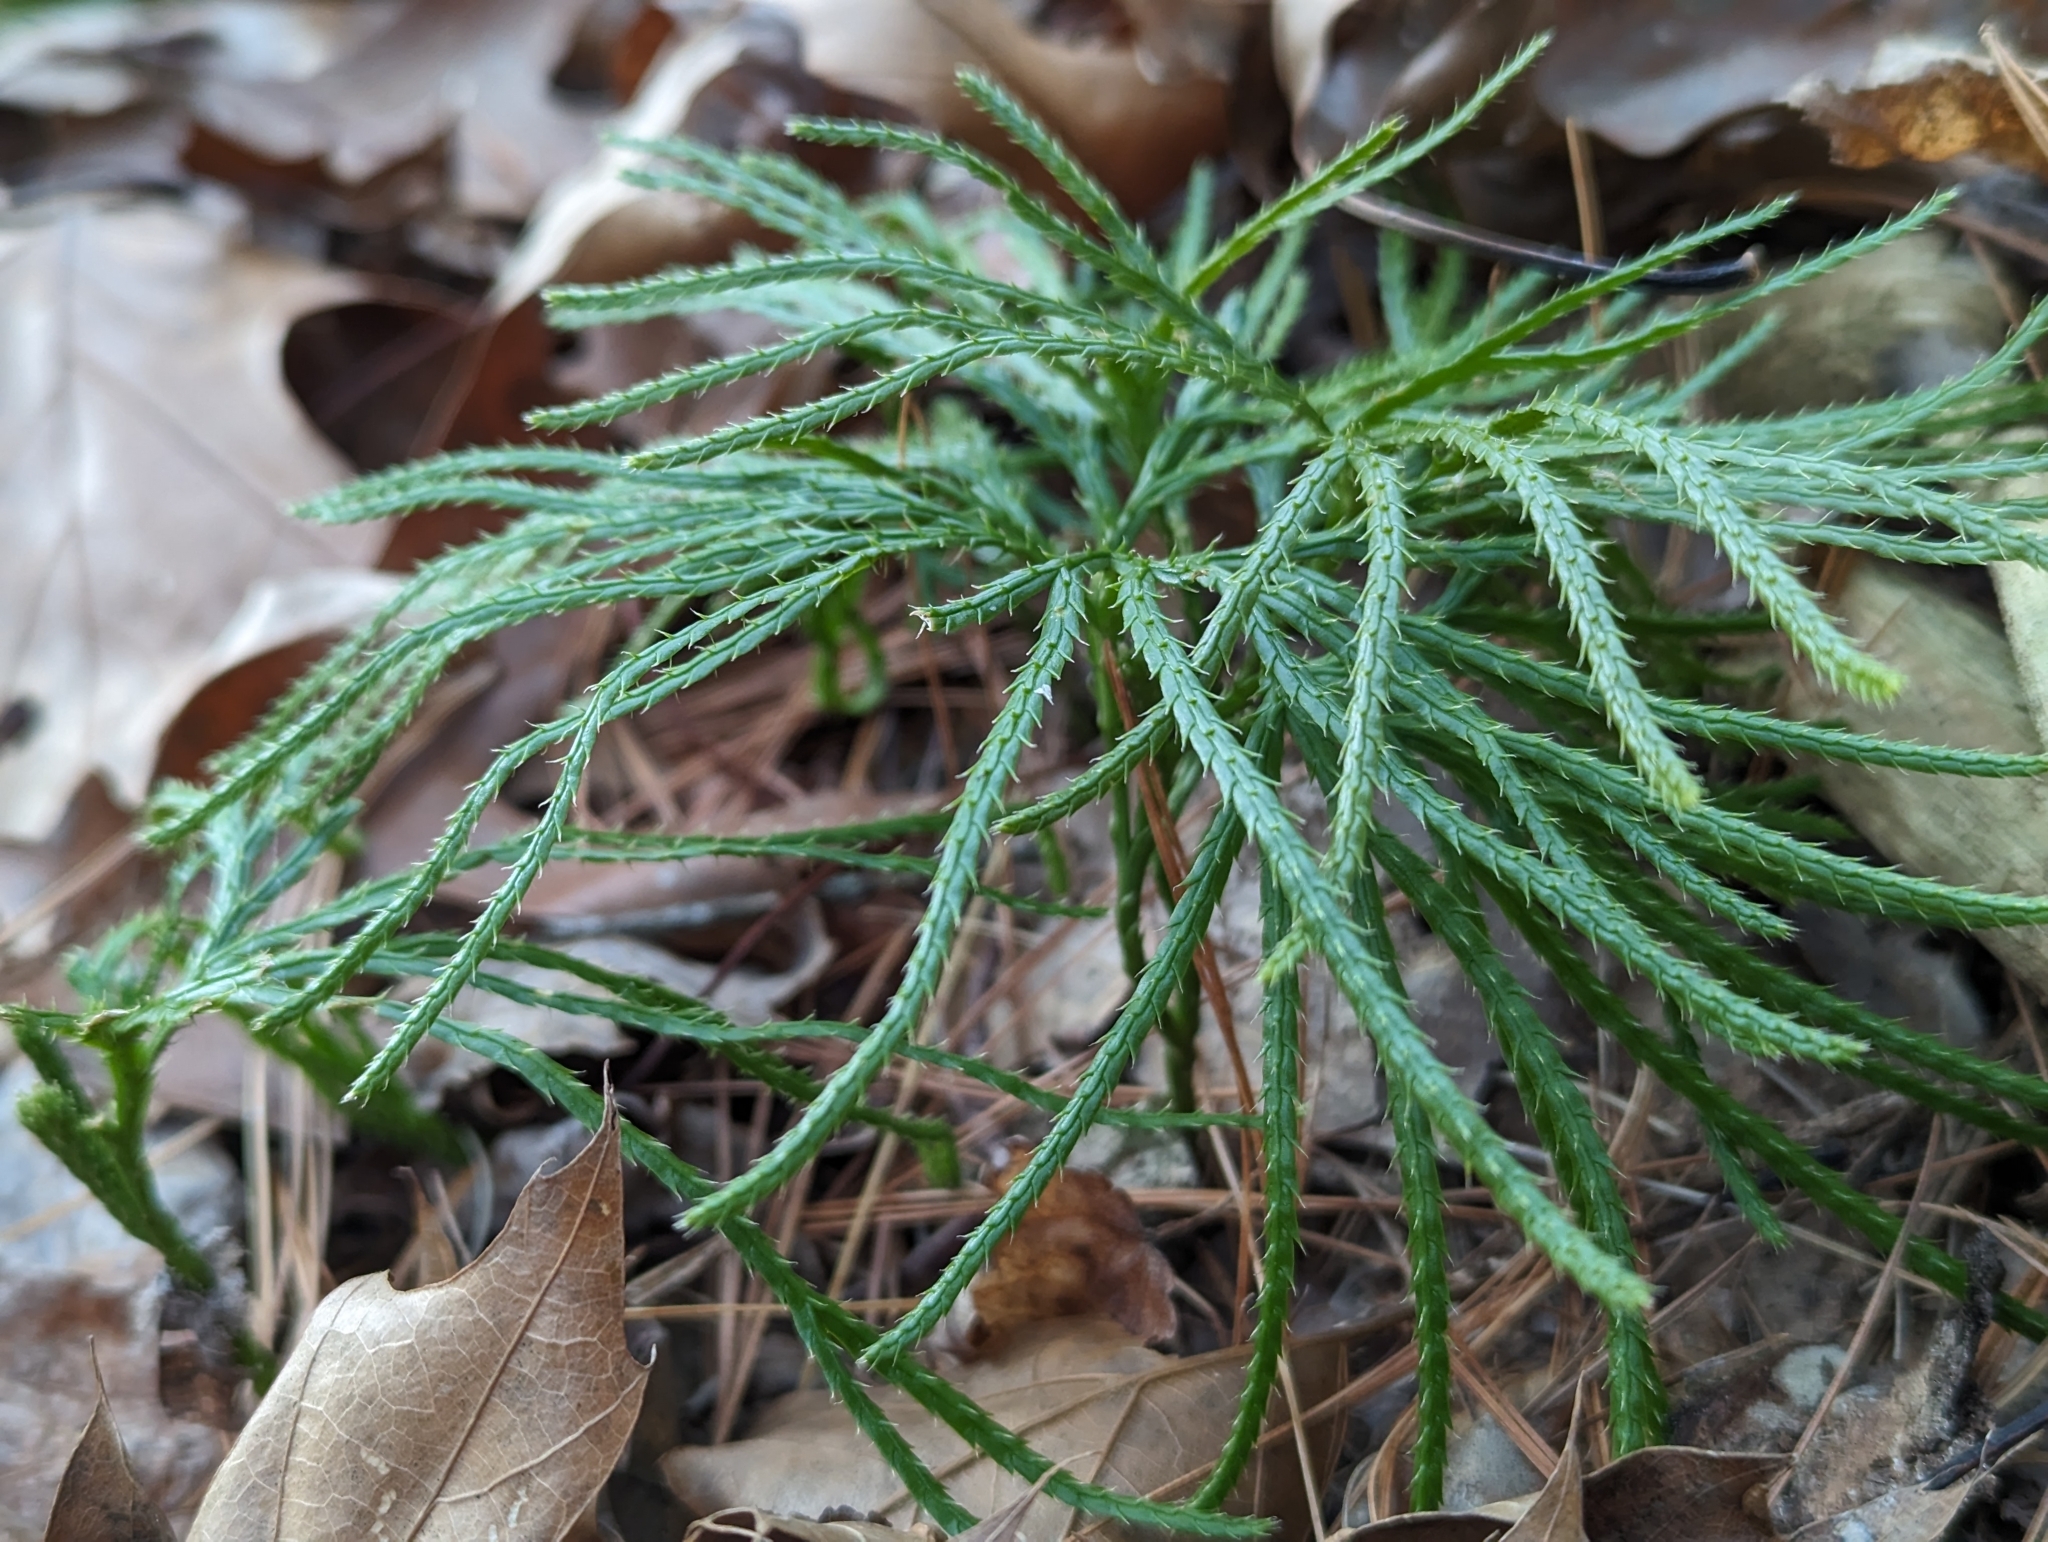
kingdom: Plantae
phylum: Tracheophyta
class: Lycopodiopsida
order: Lycopodiales
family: Lycopodiaceae
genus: Diphasiastrum
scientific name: Diphasiastrum digitatum
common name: Southern running-pine
